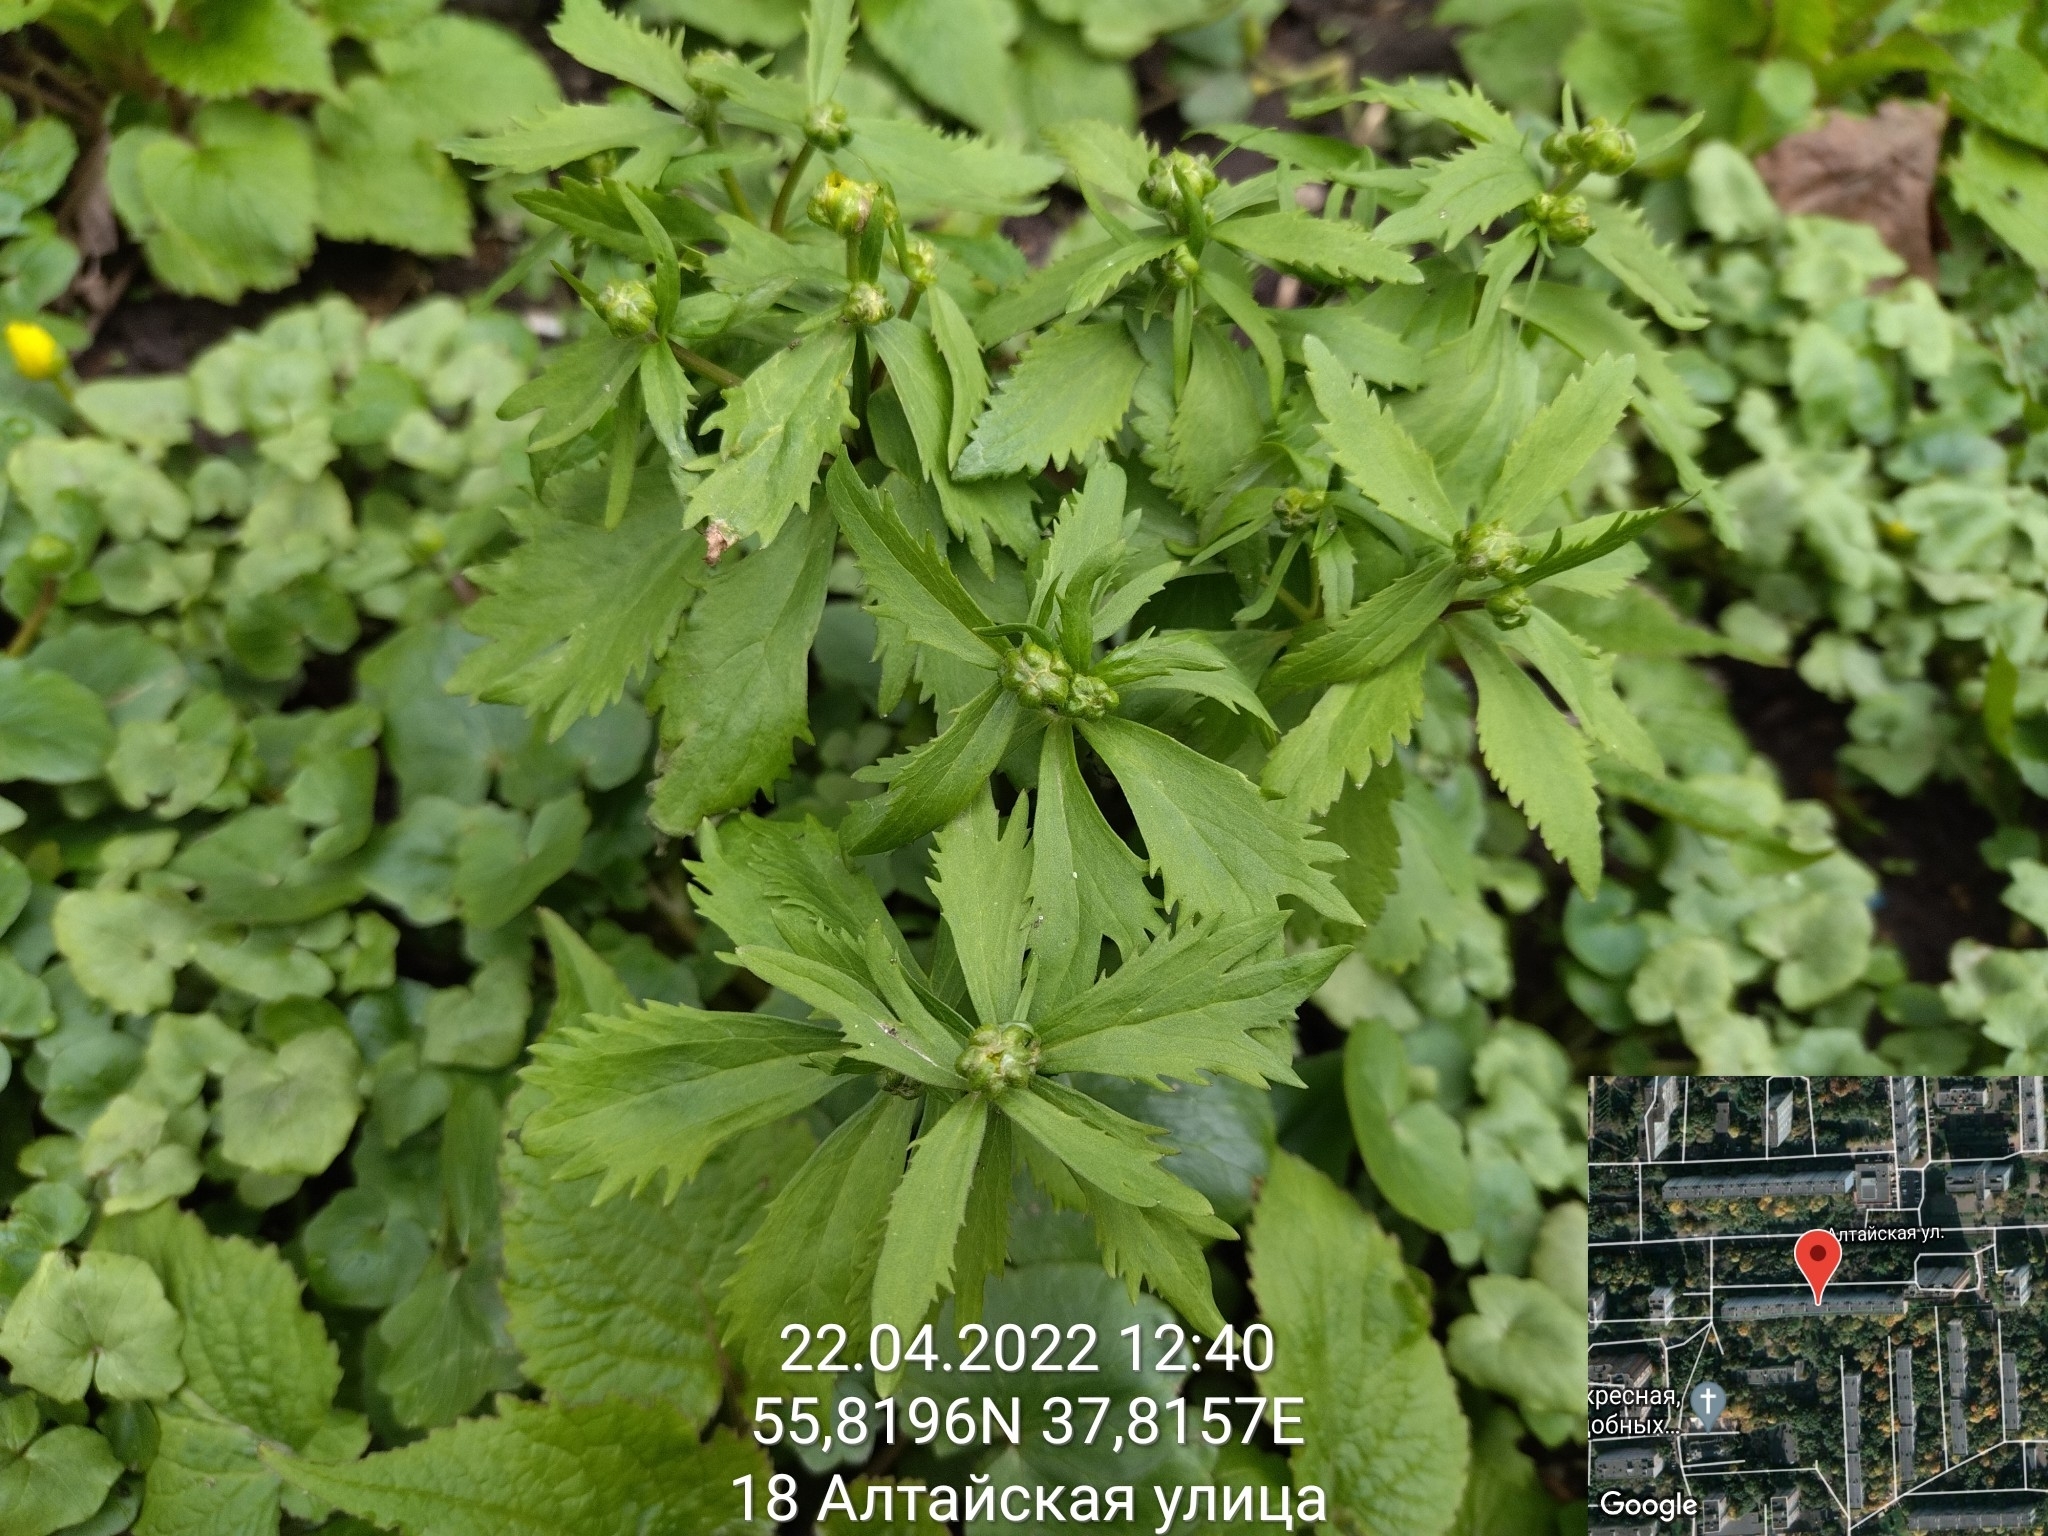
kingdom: Plantae
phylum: Tracheophyta
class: Magnoliopsida
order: Ranunculales
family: Ranunculaceae
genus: Ranunculus
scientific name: Ranunculus cassubicus
